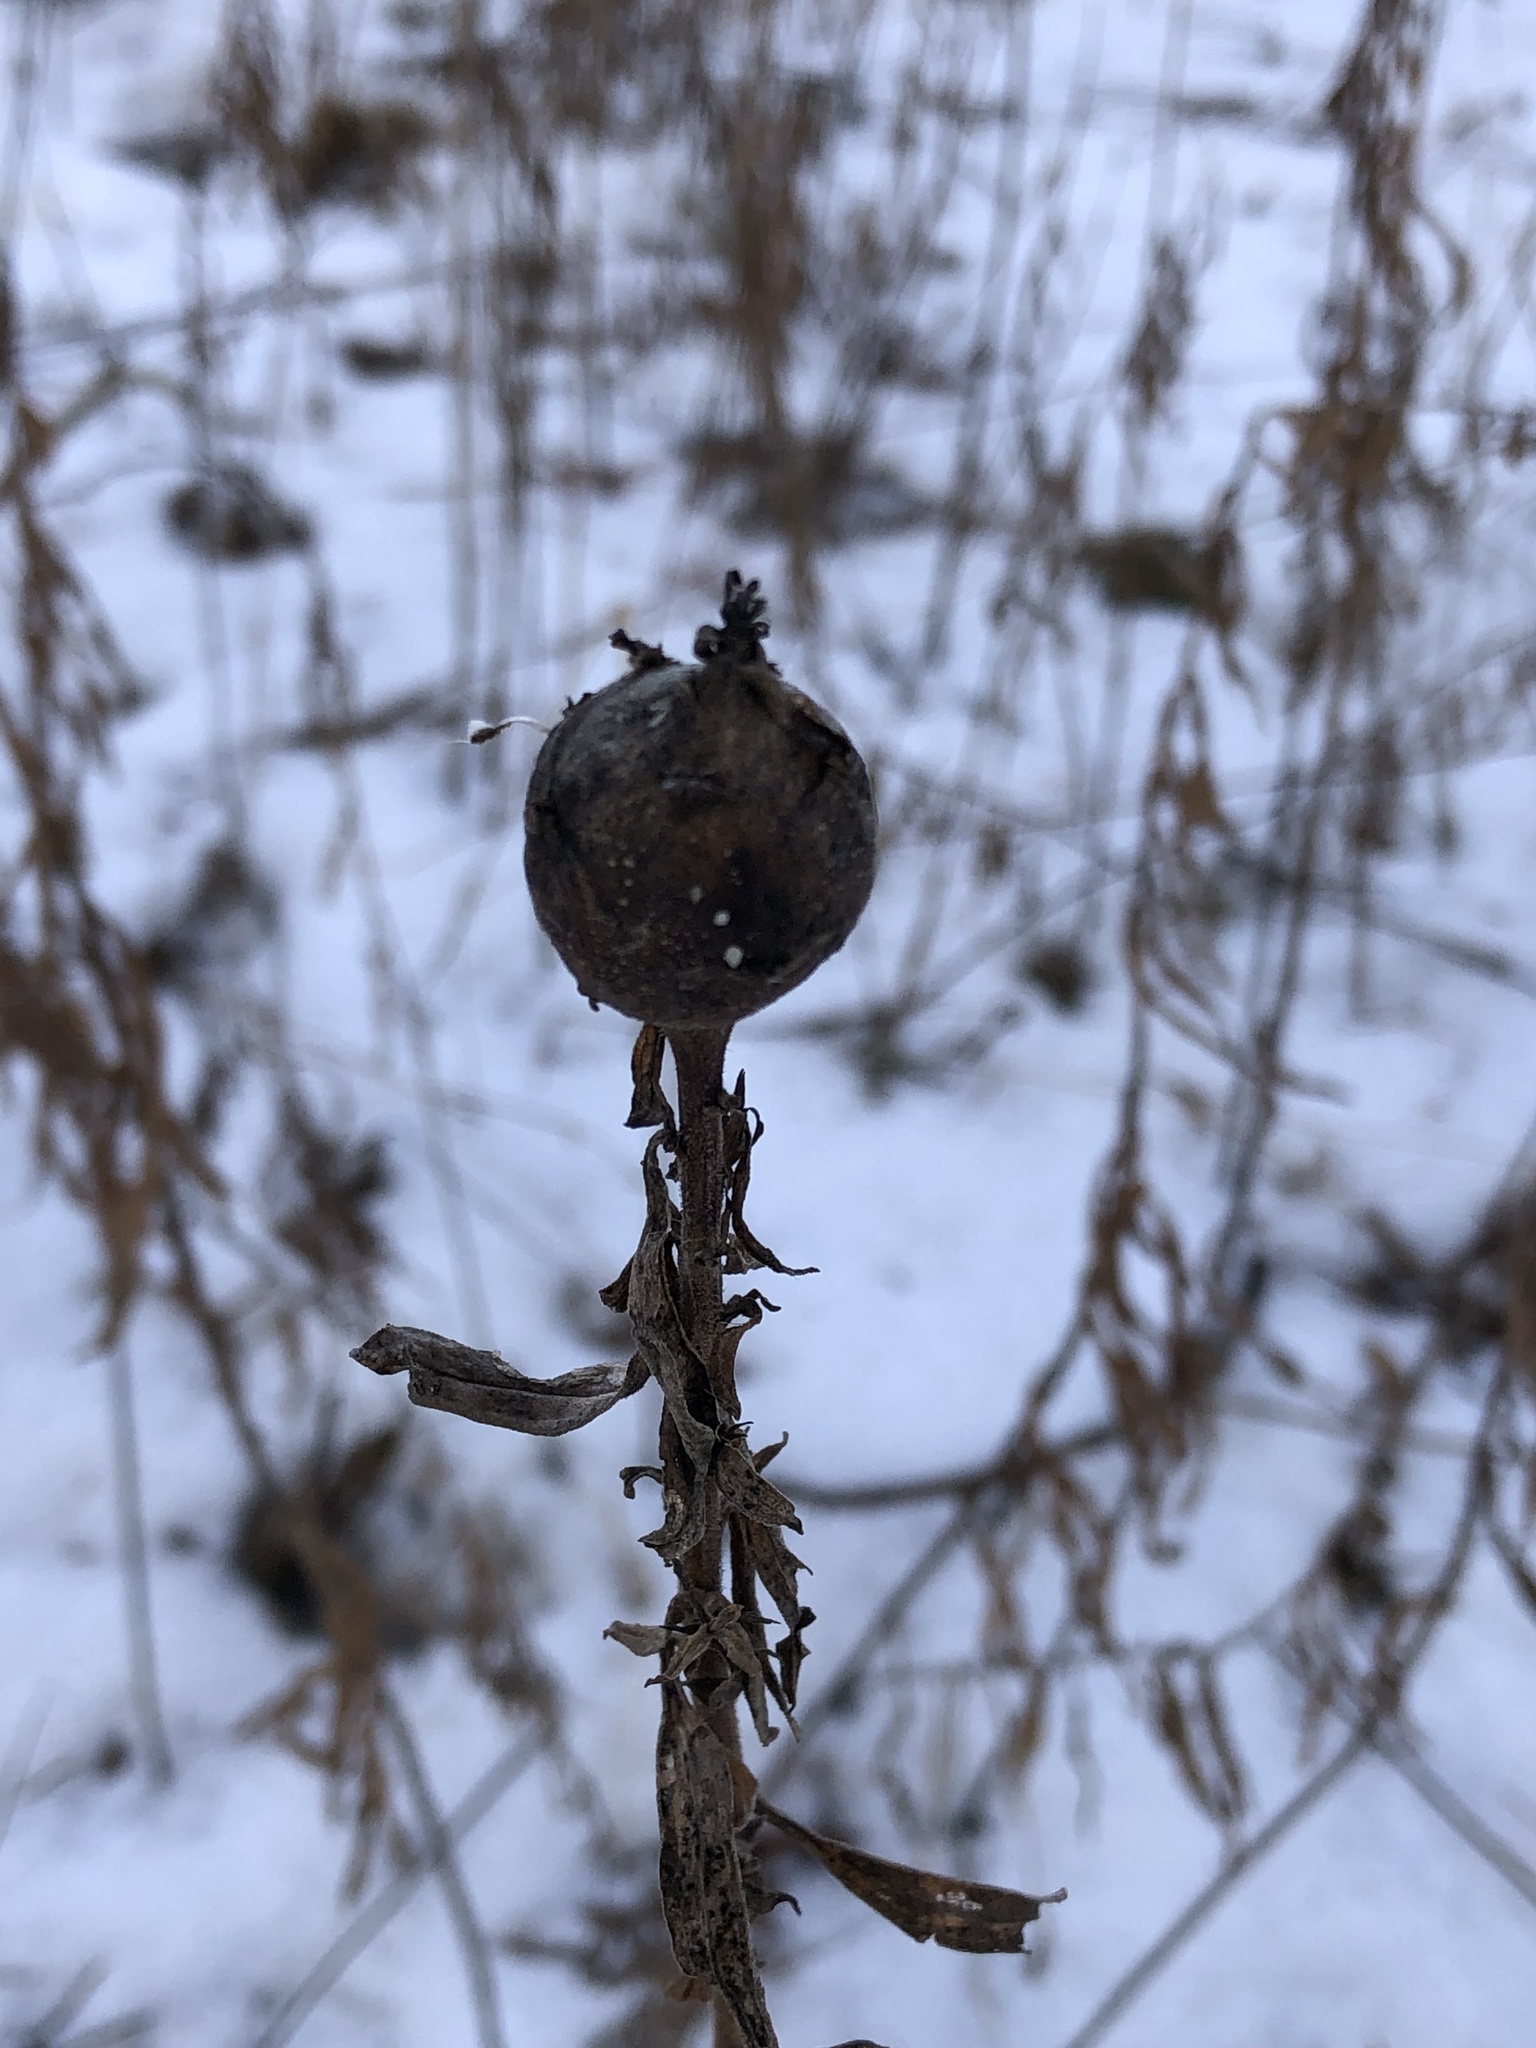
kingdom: Animalia
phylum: Arthropoda
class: Insecta
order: Diptera
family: Tephritidae
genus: Eurosta
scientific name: Eurosta solidaginis
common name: Goldenrod gall fly
